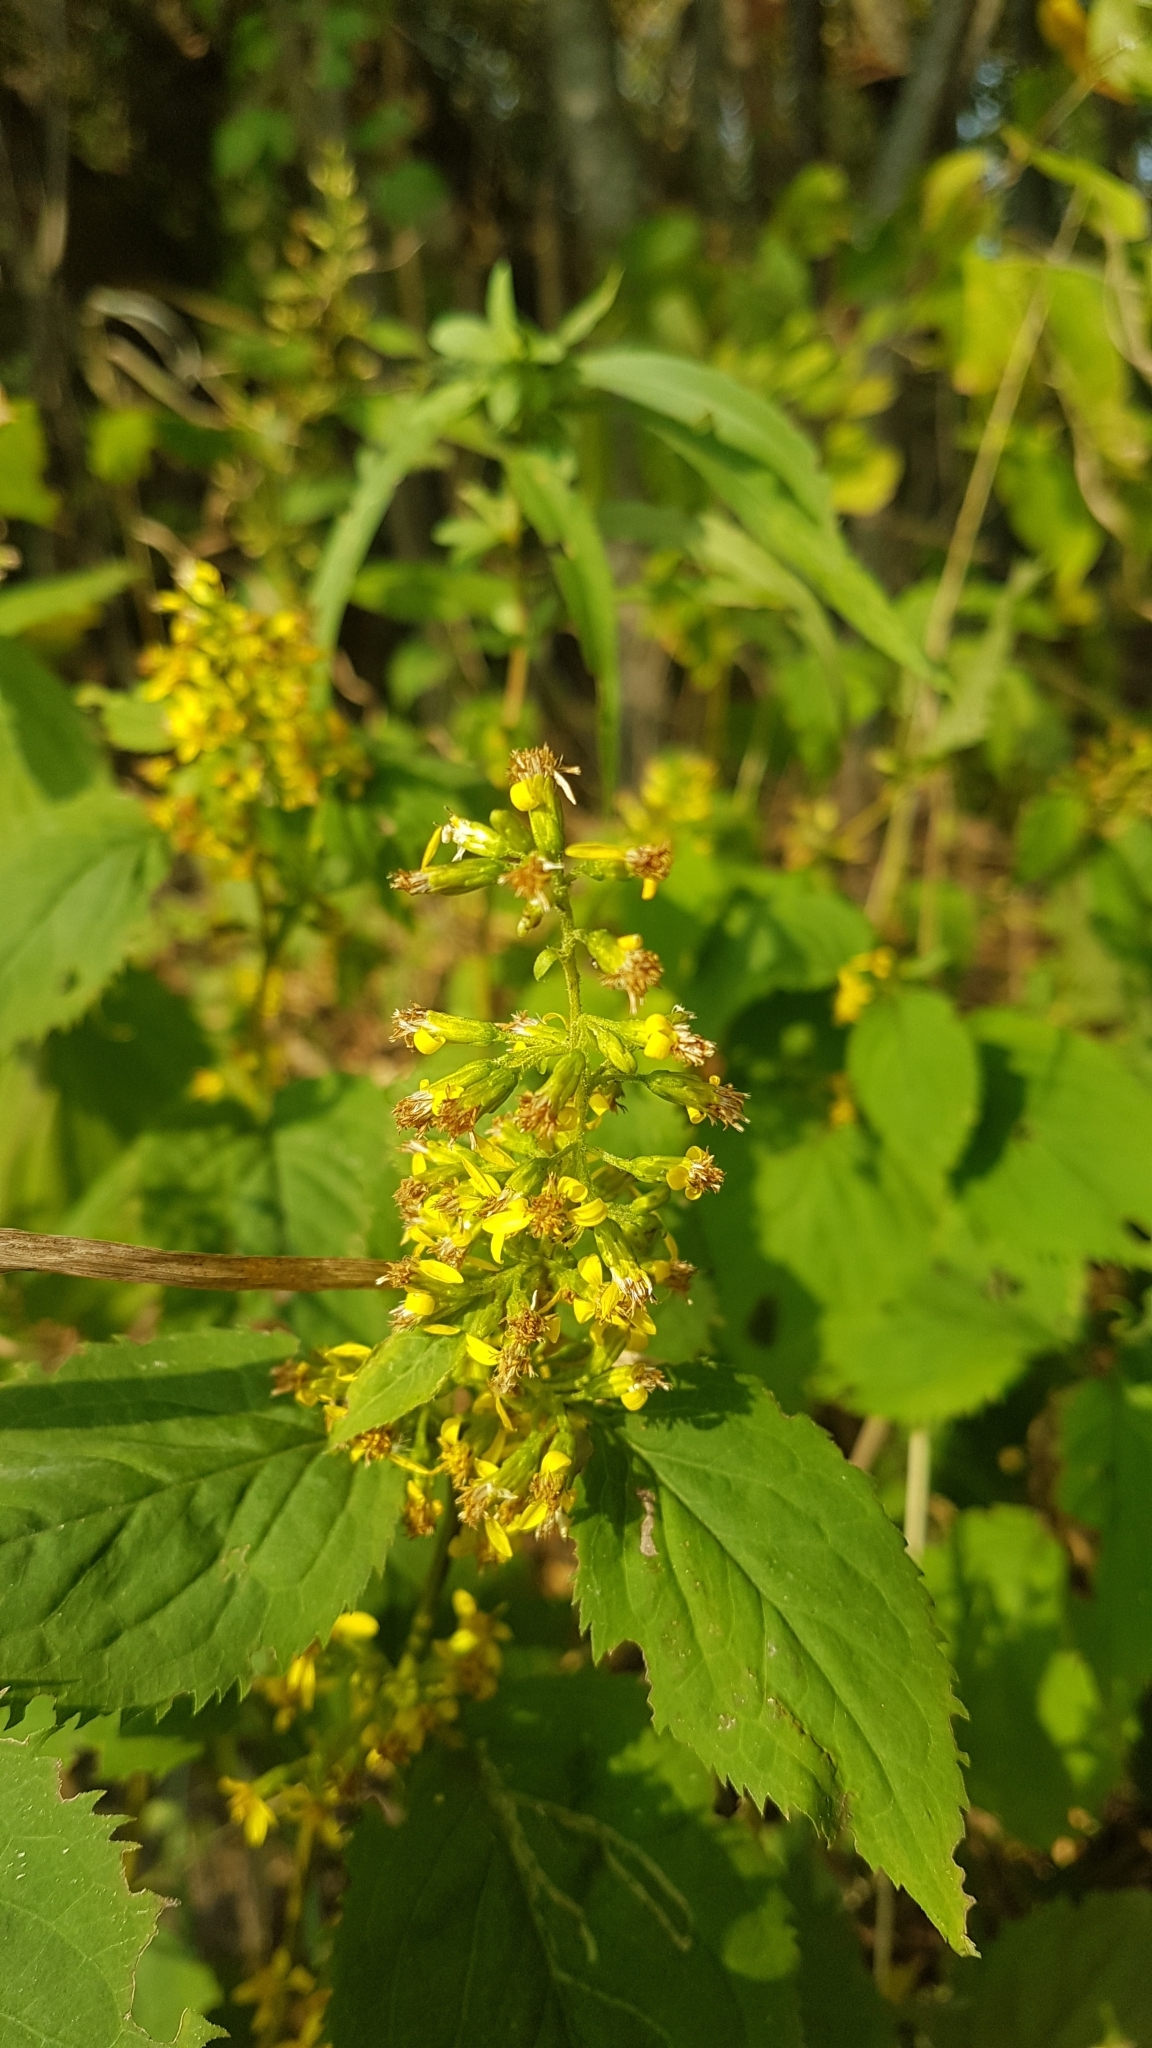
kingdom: Plantae
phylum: Tracheophyta
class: Magnoliopsida
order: Asterales
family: Asteraceae
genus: Solidago
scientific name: Solidago flexicaulis
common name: Zig-zag goldenrod
